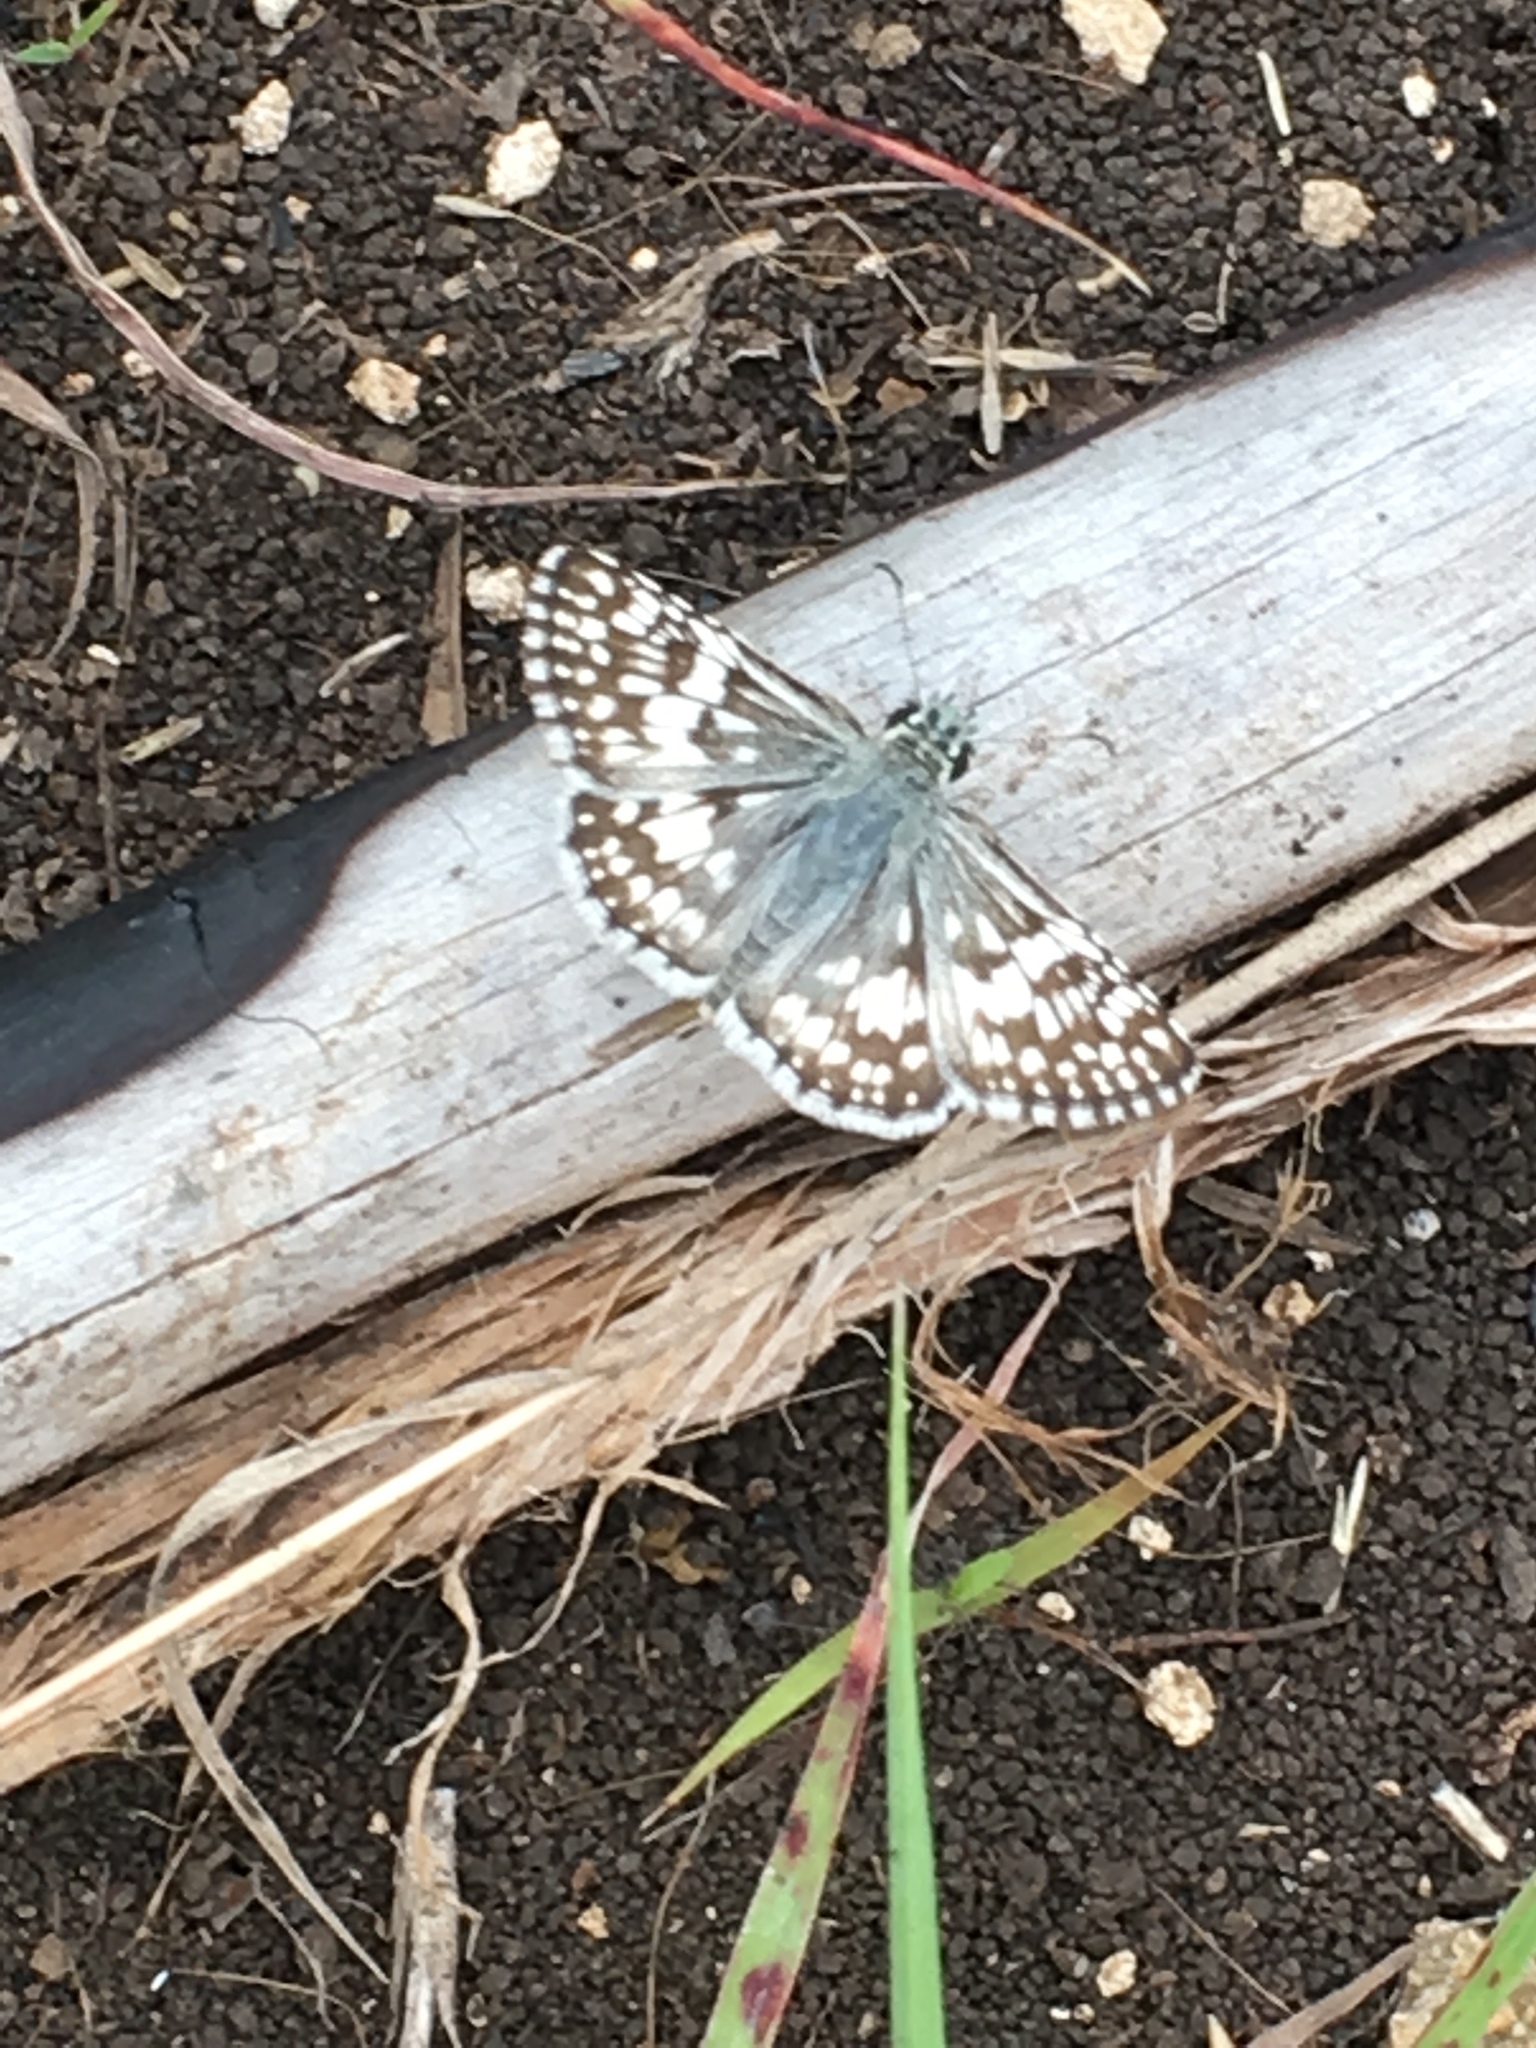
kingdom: Animalia
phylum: Arthropoda
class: Insecta
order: Lepidoptera
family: Hesperiidae
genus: Burnsius
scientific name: Burnsius
